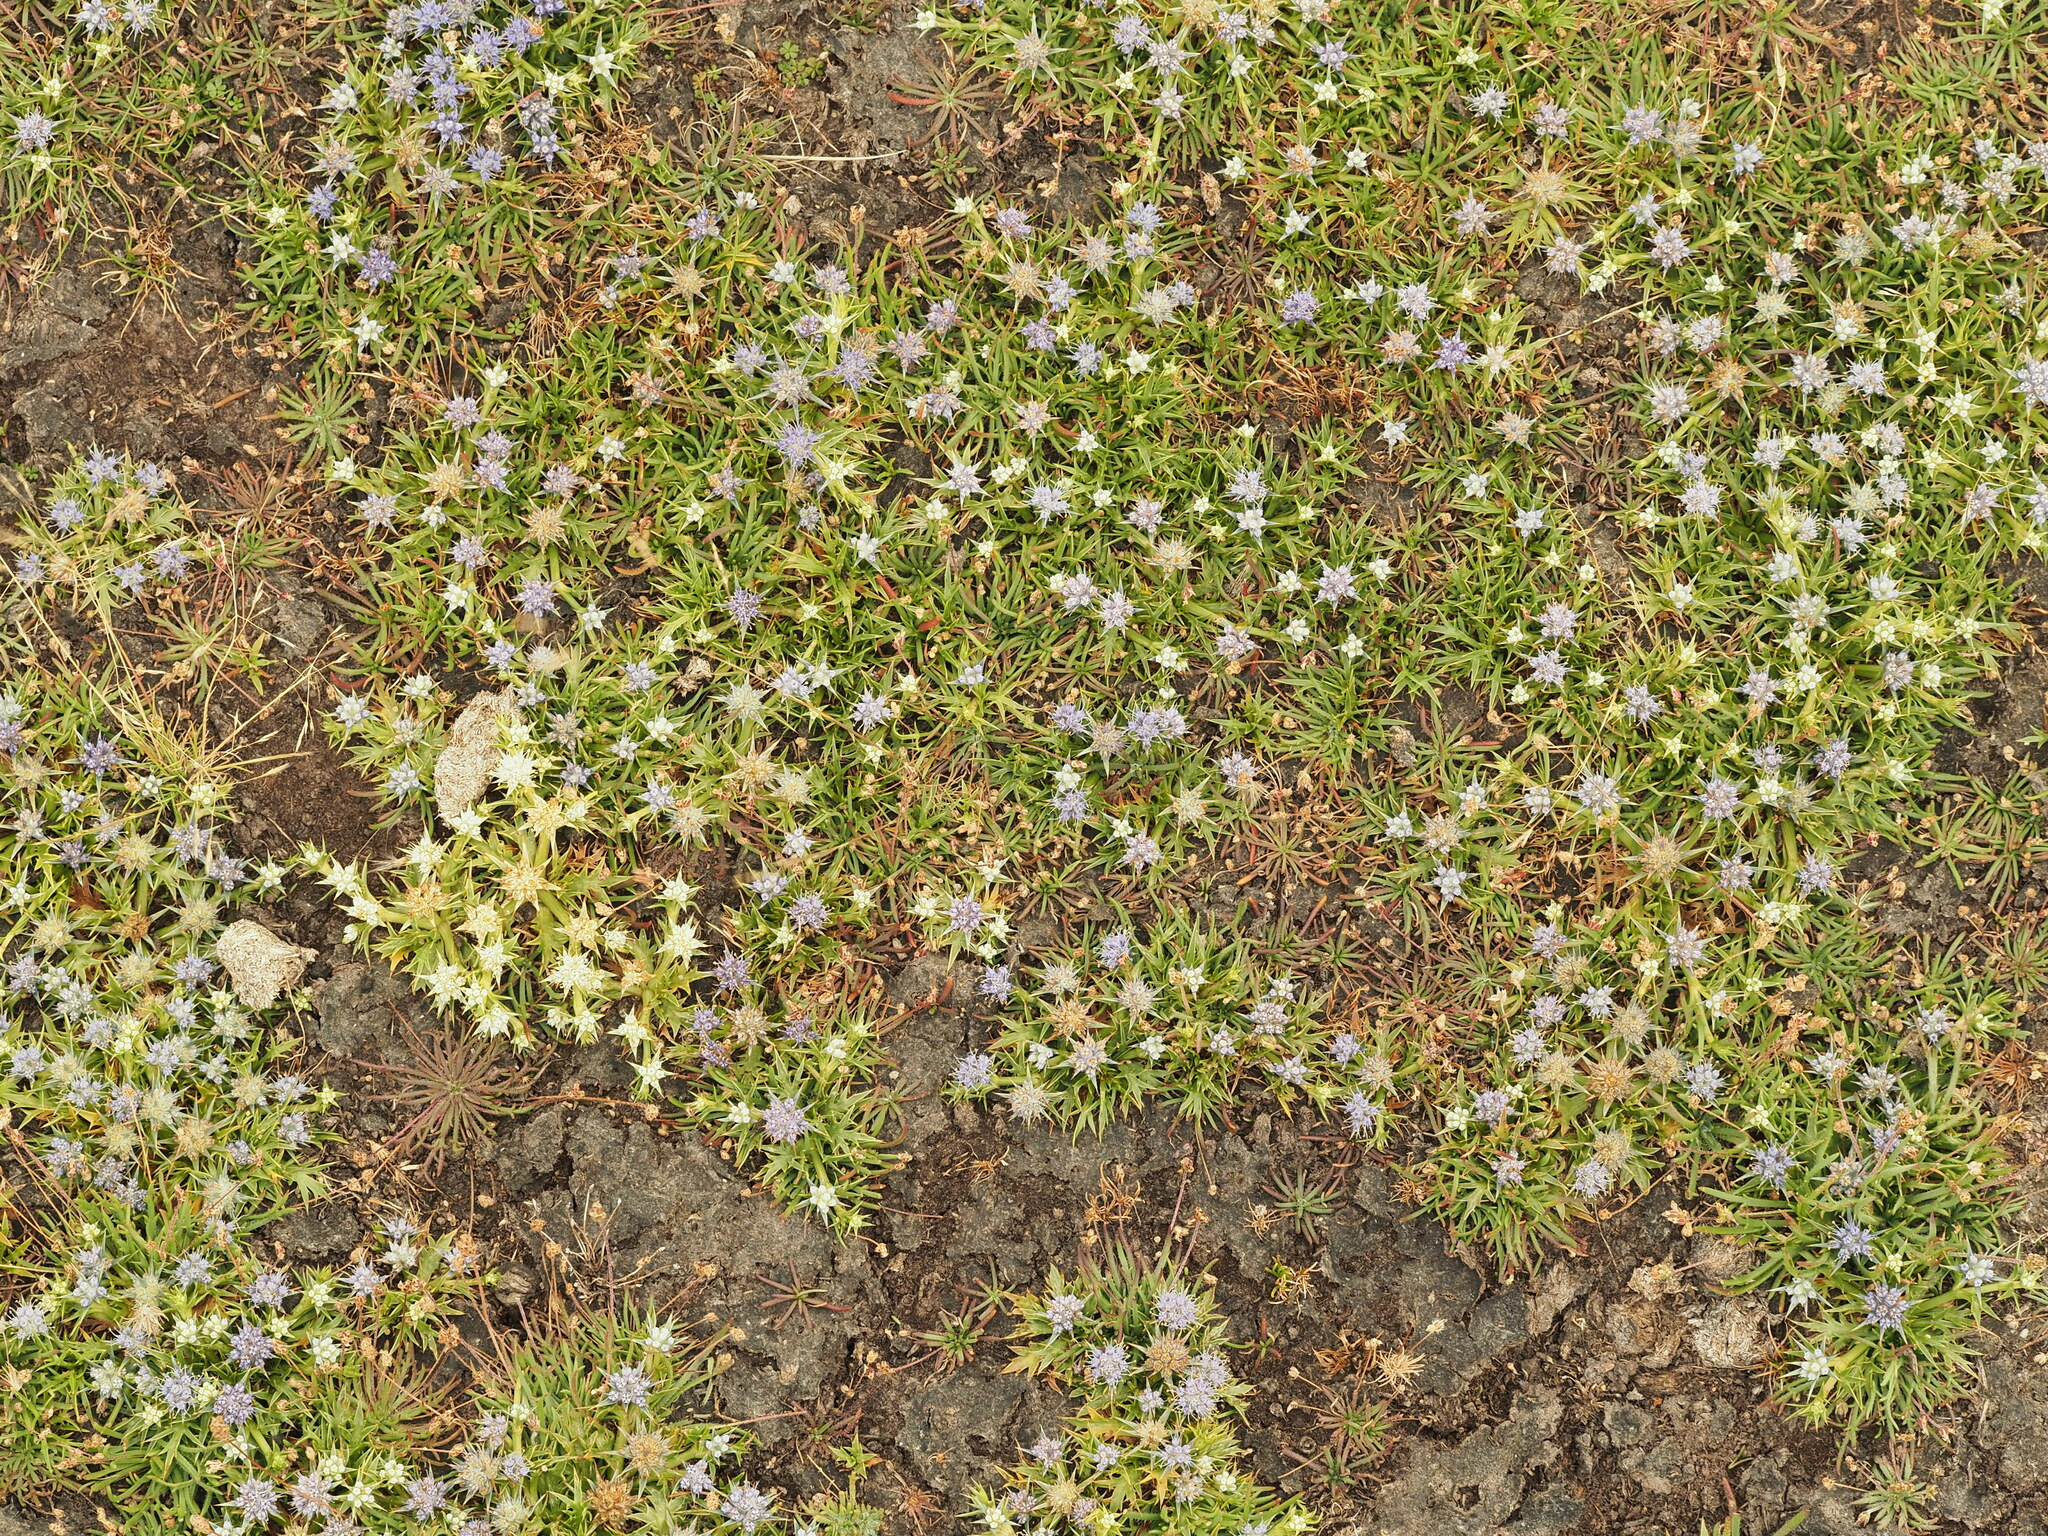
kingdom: Plantae
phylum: Tracheophyta
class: Magnoliopsida
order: Apiales
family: Apiaceae
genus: Eryngium
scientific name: Eryngium vesiculosum
